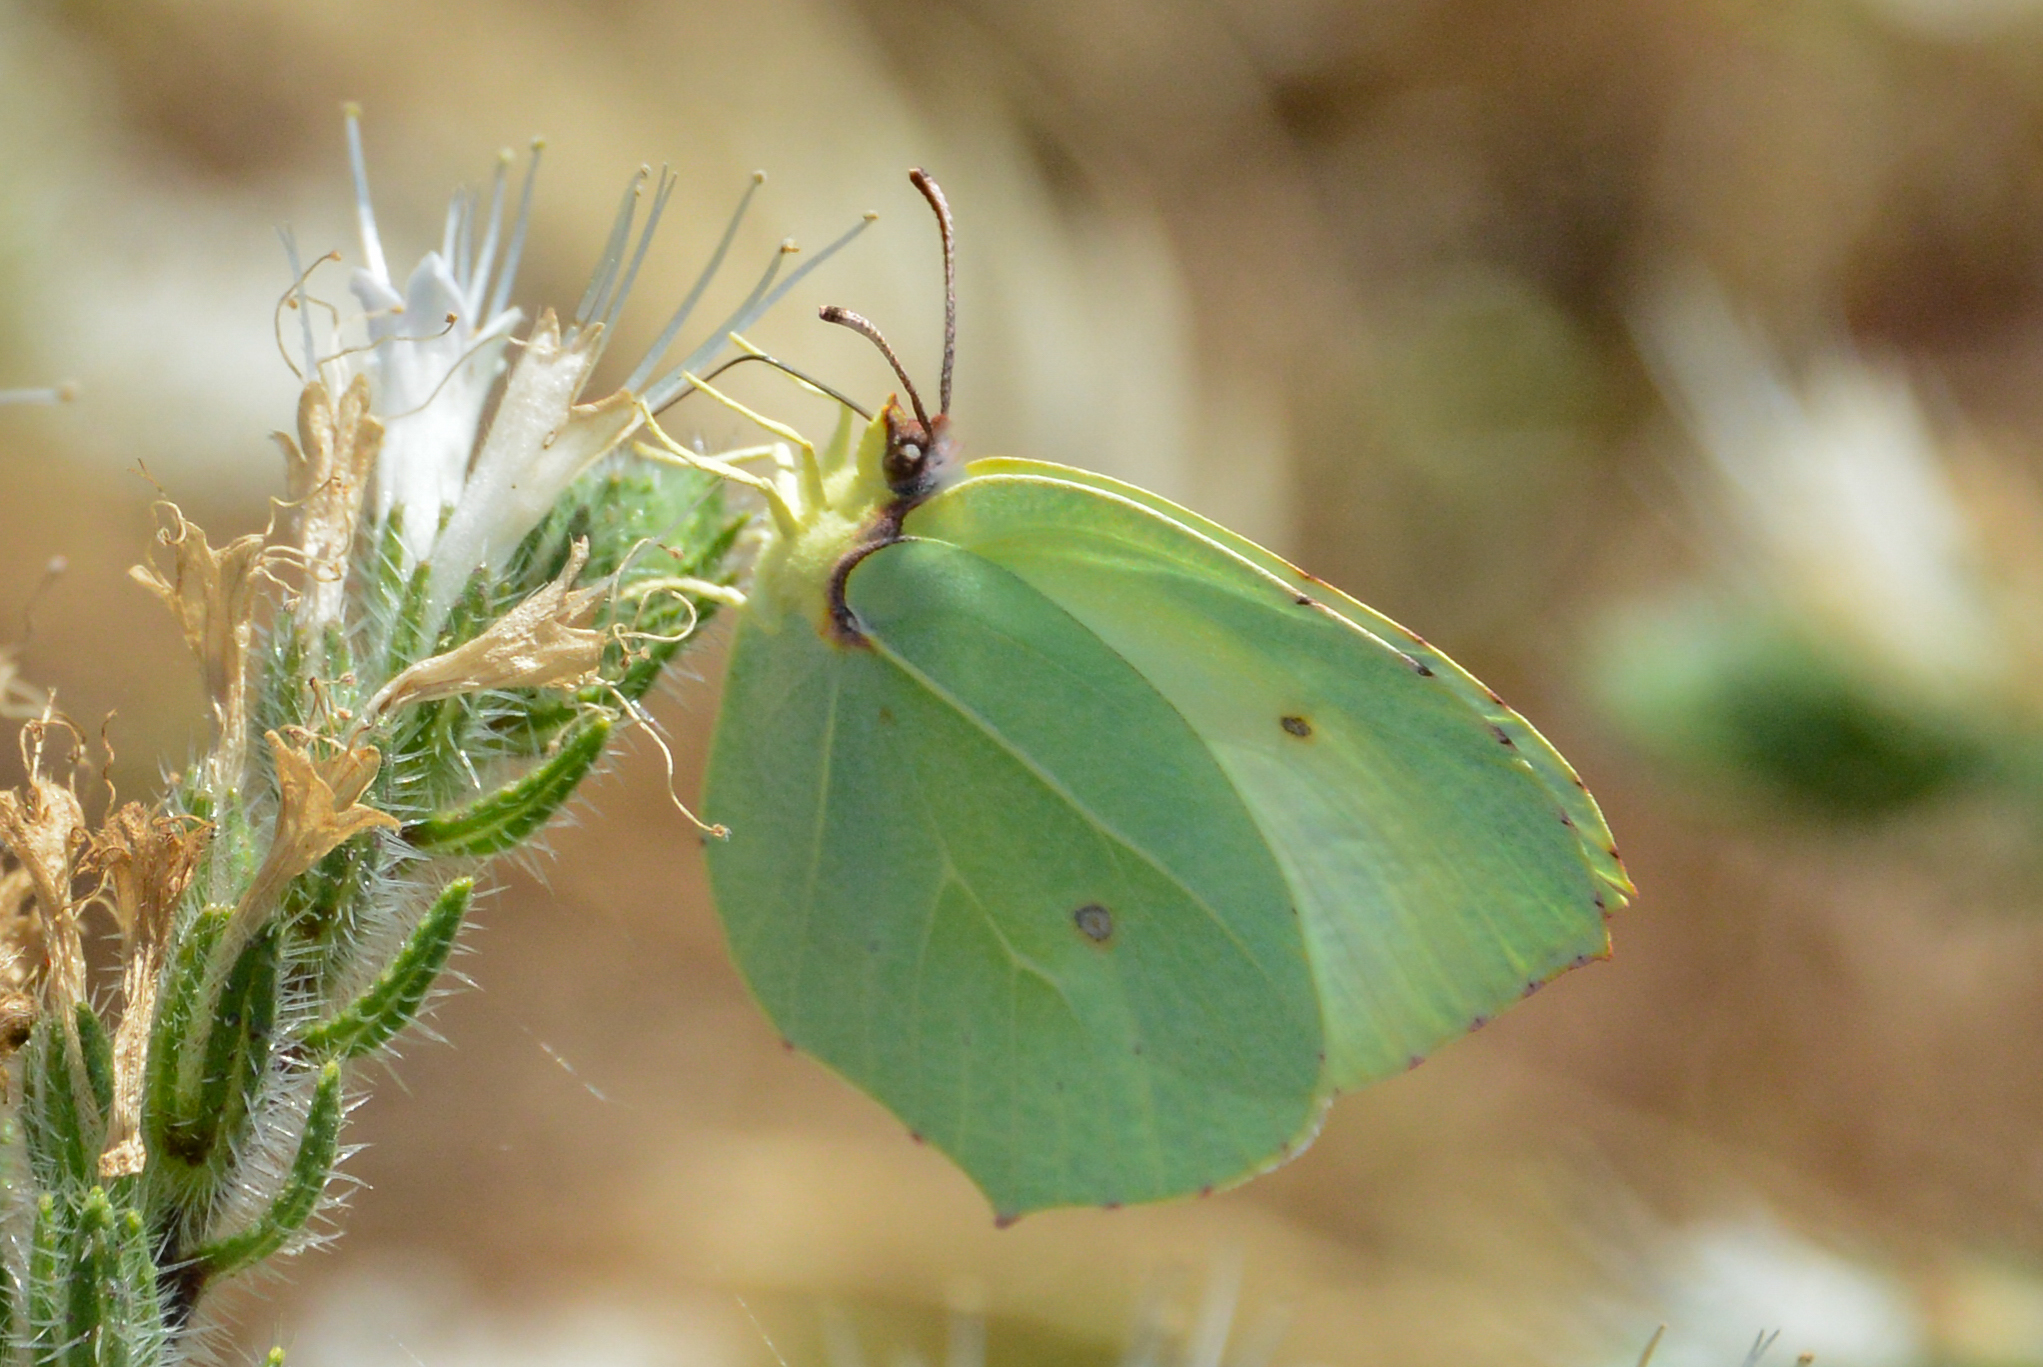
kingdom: Animalia
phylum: Arthropoda
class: Insecta
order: Lepidoptera
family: Pieridae
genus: Gonepteryx
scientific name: Gonepteryx cleopatra
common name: Cleopatra
